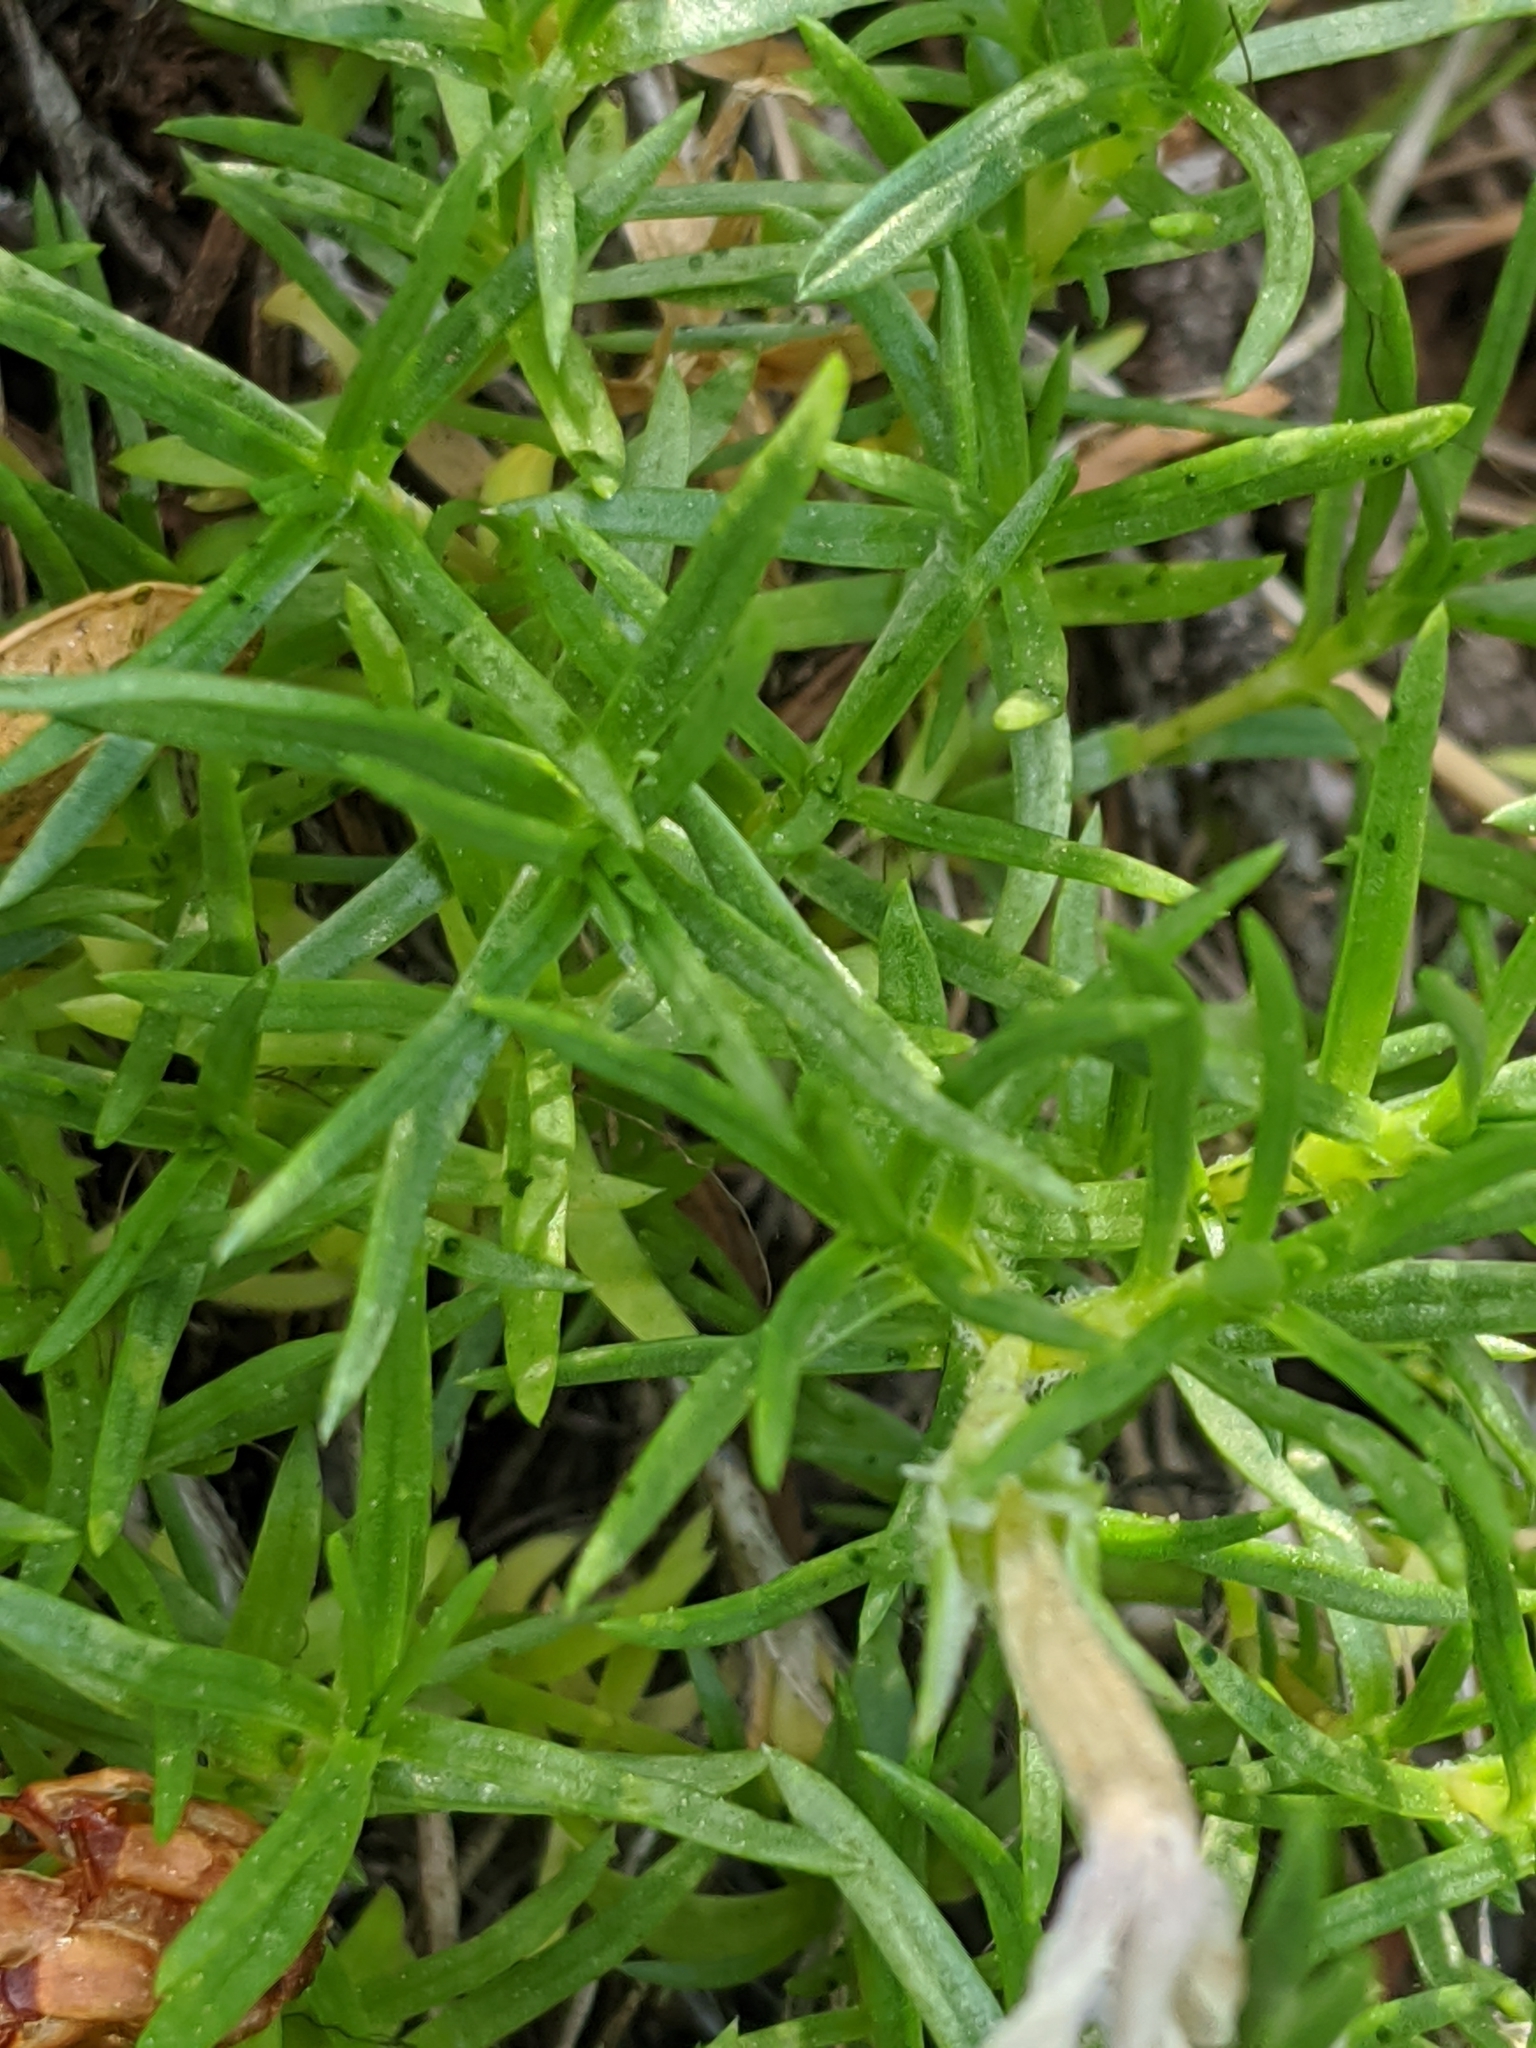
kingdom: Plantae
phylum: Tracheophyta
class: Magnoliopsida
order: Ericales
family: Polemoniaceae
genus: Phlox
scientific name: Phlox diffusa
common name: Mat phlox
